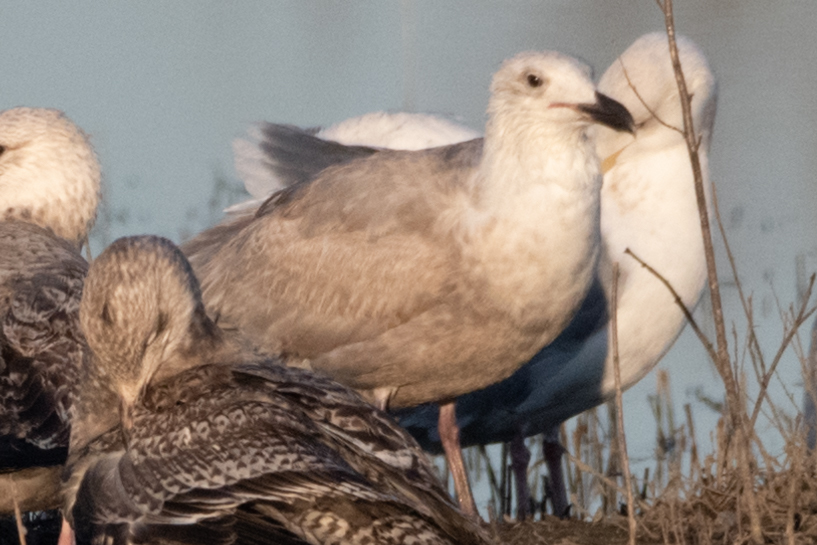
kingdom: Animalia
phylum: Chordata
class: Aves
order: Charadriiformes
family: Laridae
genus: Larus
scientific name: Larus glaucescens
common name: Glaucous-winged gull
